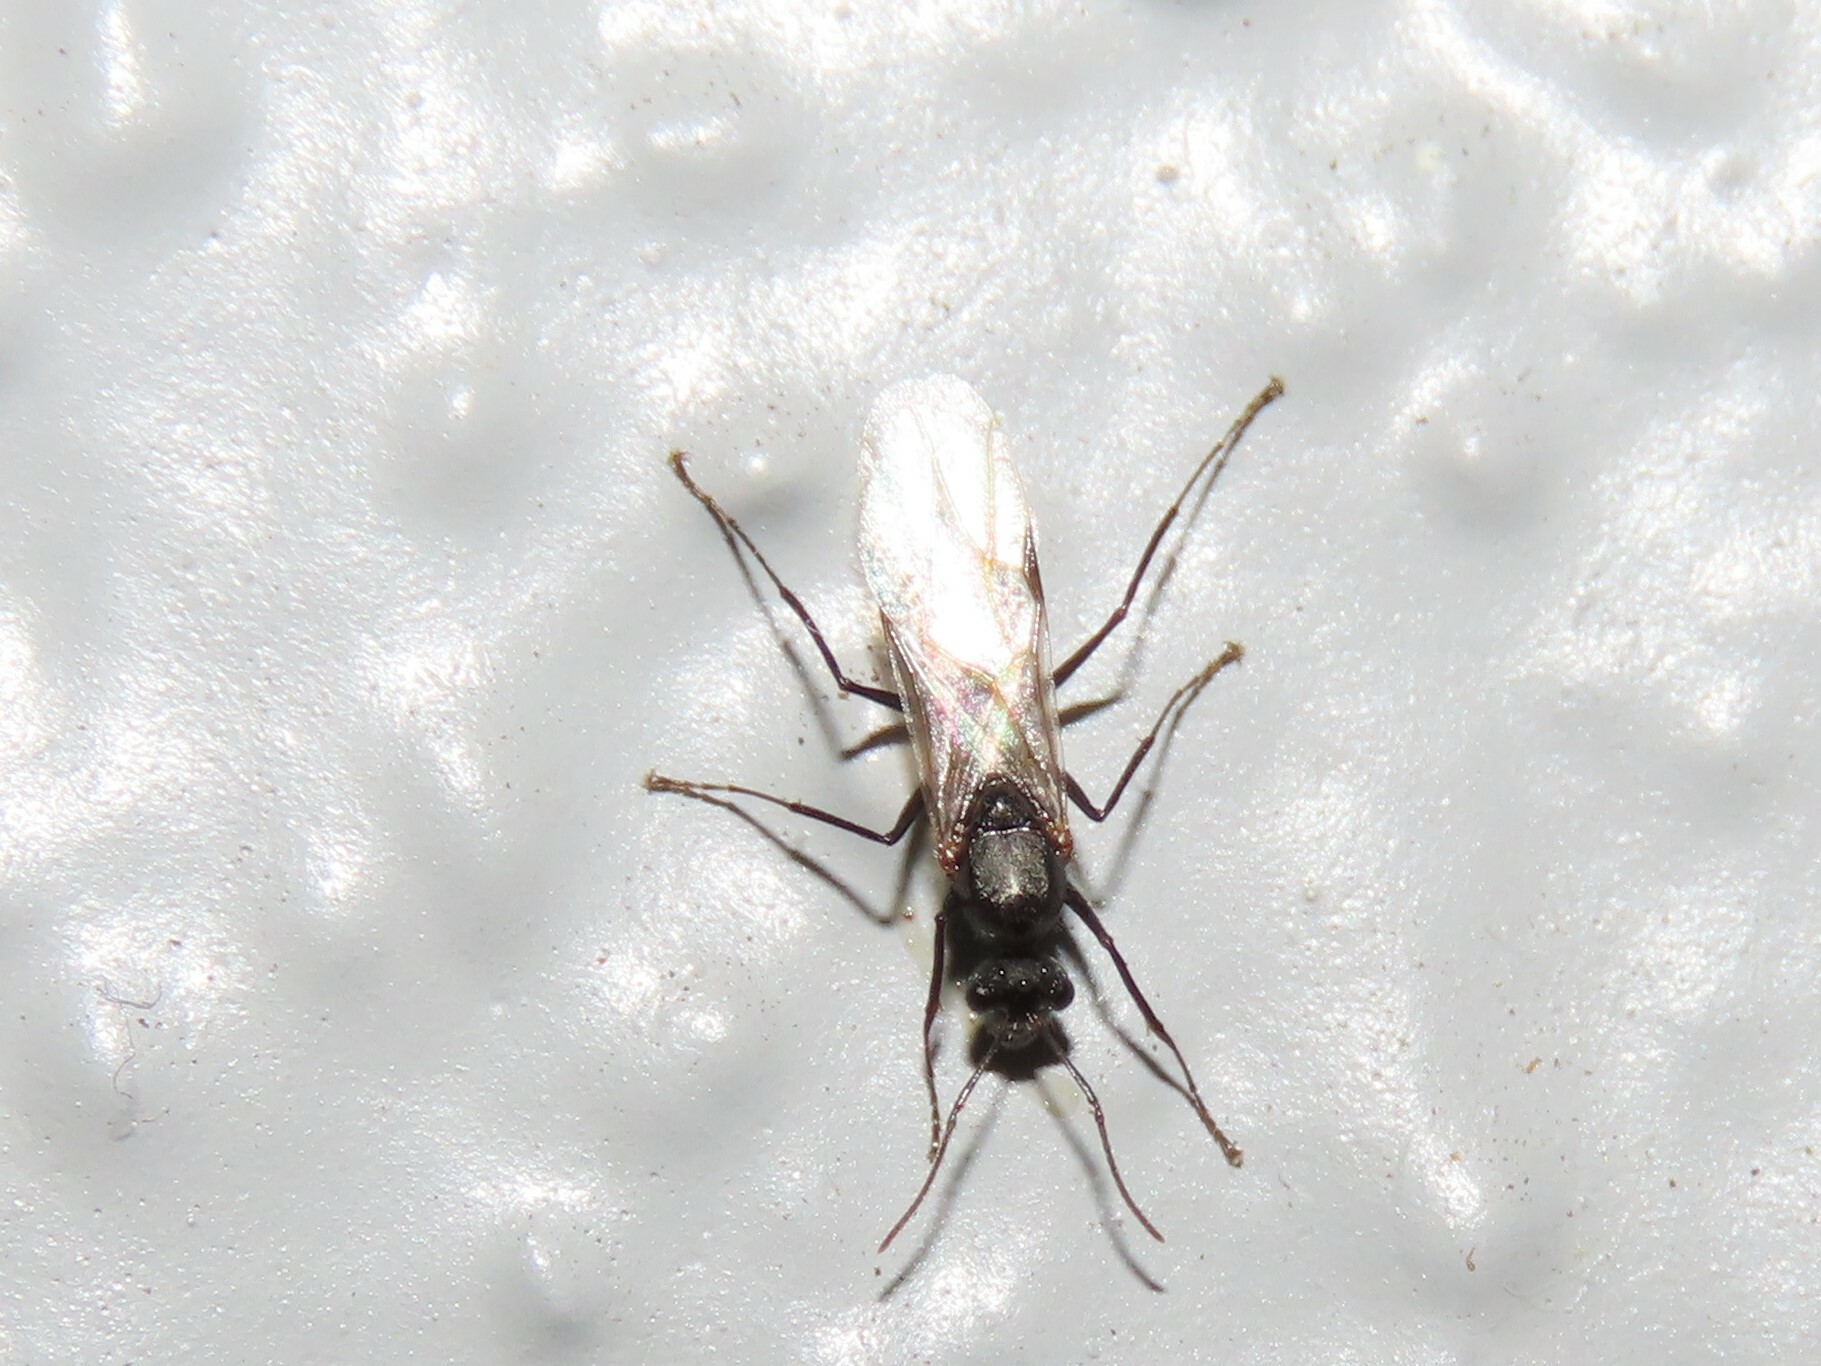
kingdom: Animalia
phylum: Arthropoda
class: Insecta
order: Hymenoptera
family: Formicidae
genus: Camponotus
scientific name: Camponotus planatus
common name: Compact carpenter ant
